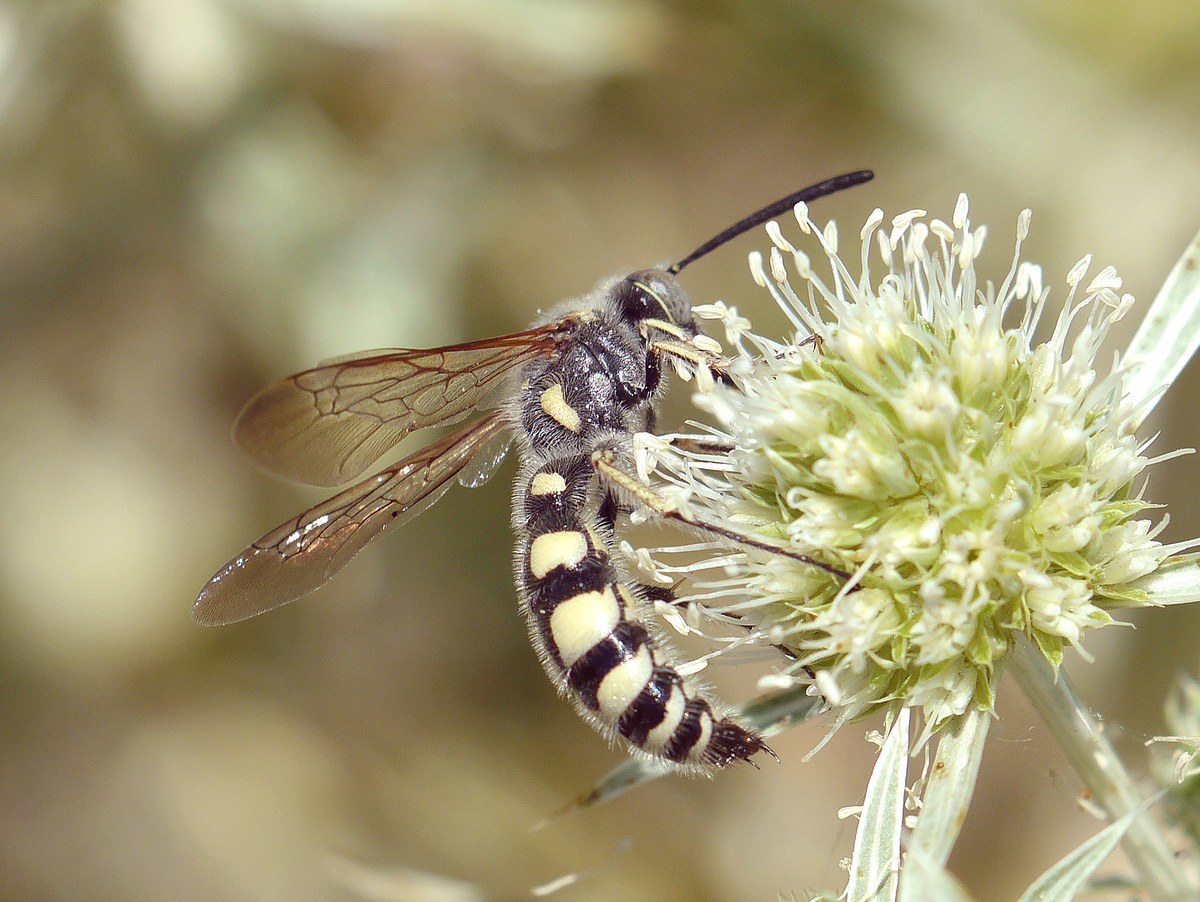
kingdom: Animalia
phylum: Arthropoda
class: Insecta
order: Hymenoptera
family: Vespidae
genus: Vespa
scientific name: Vespa sexmaculata
